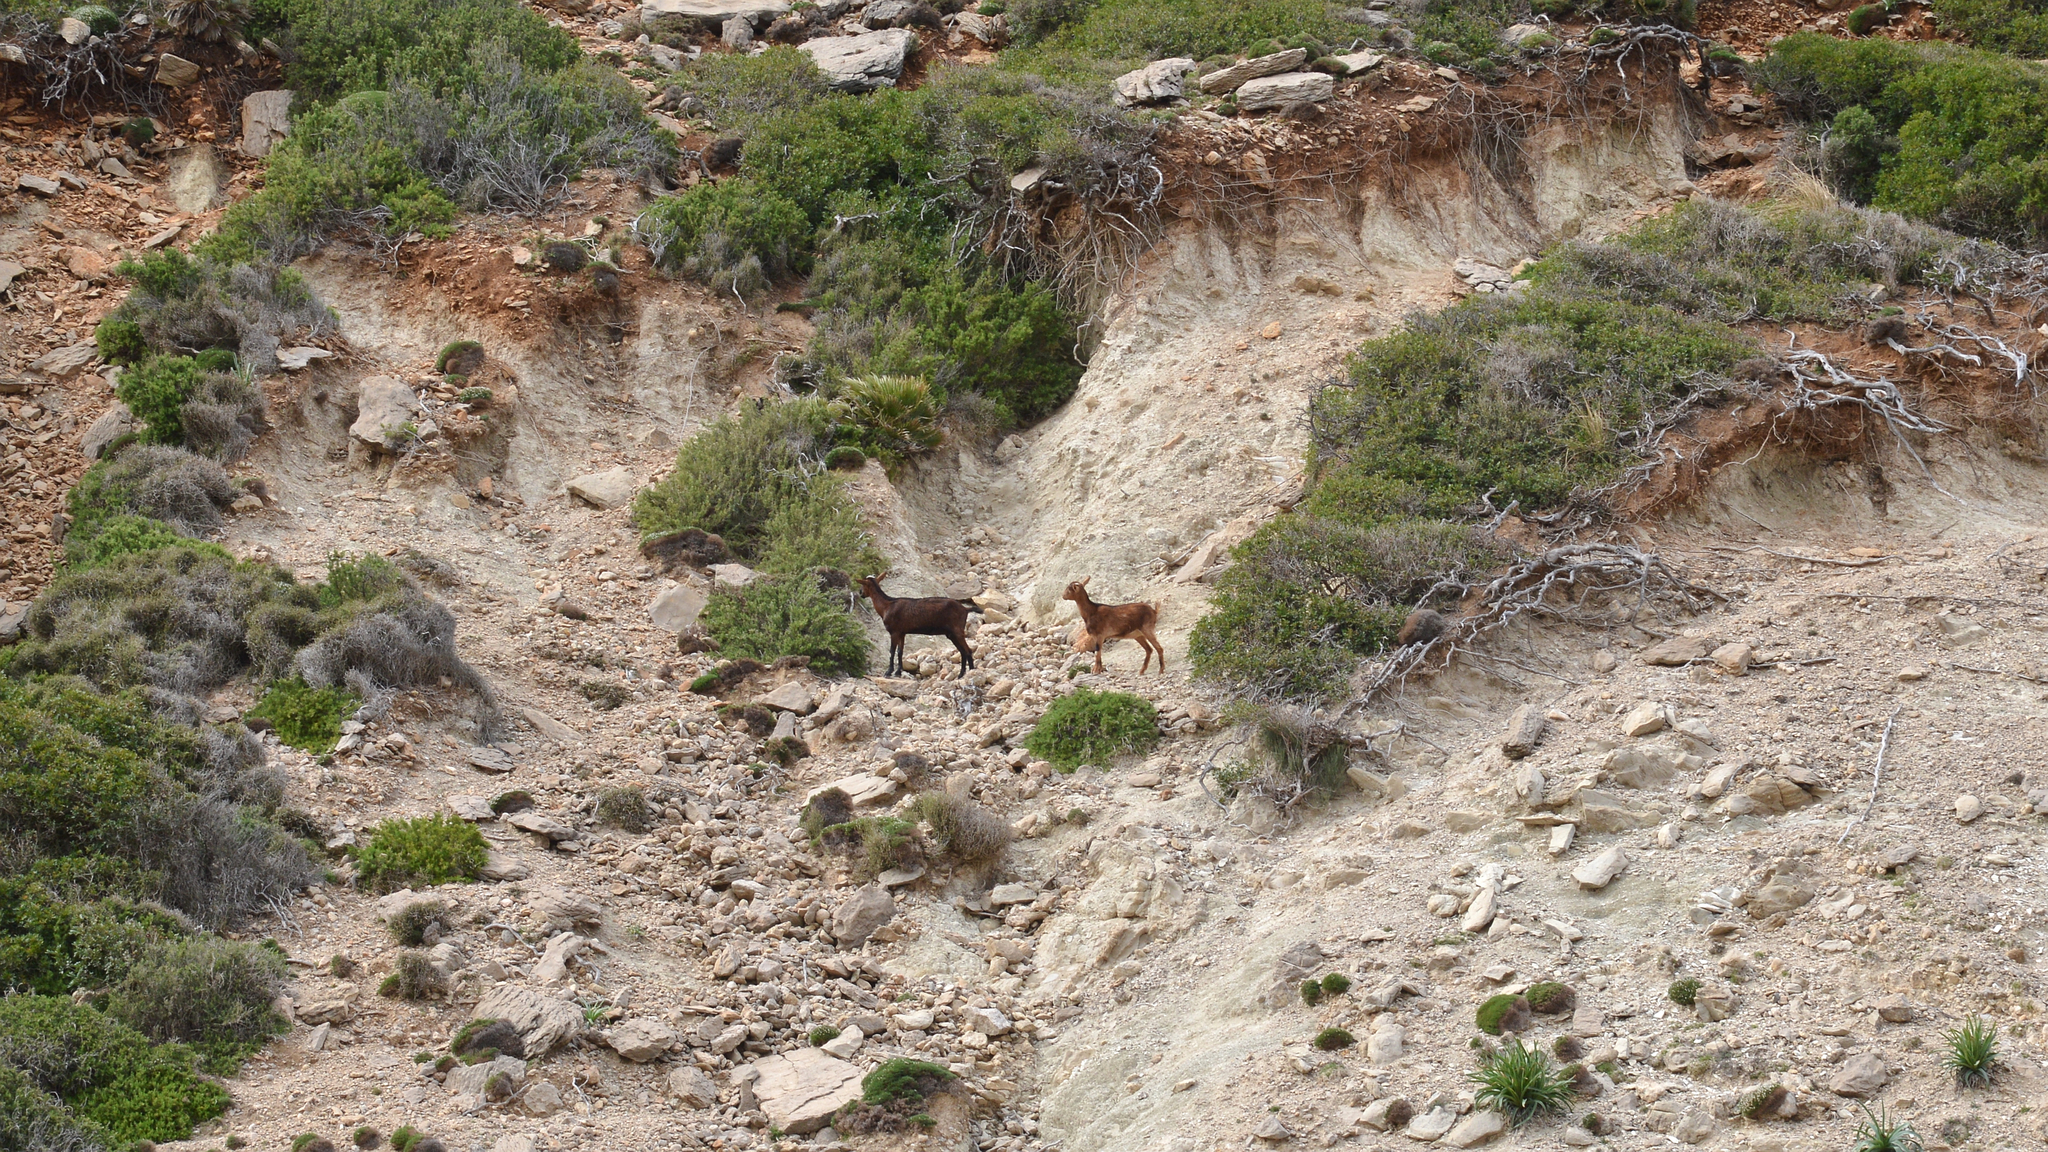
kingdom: Animalia
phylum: Chordata
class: Mammalia
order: Artiodactyla
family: Bovidae
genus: Capra
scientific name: Capra hircus
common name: Domestic goat
